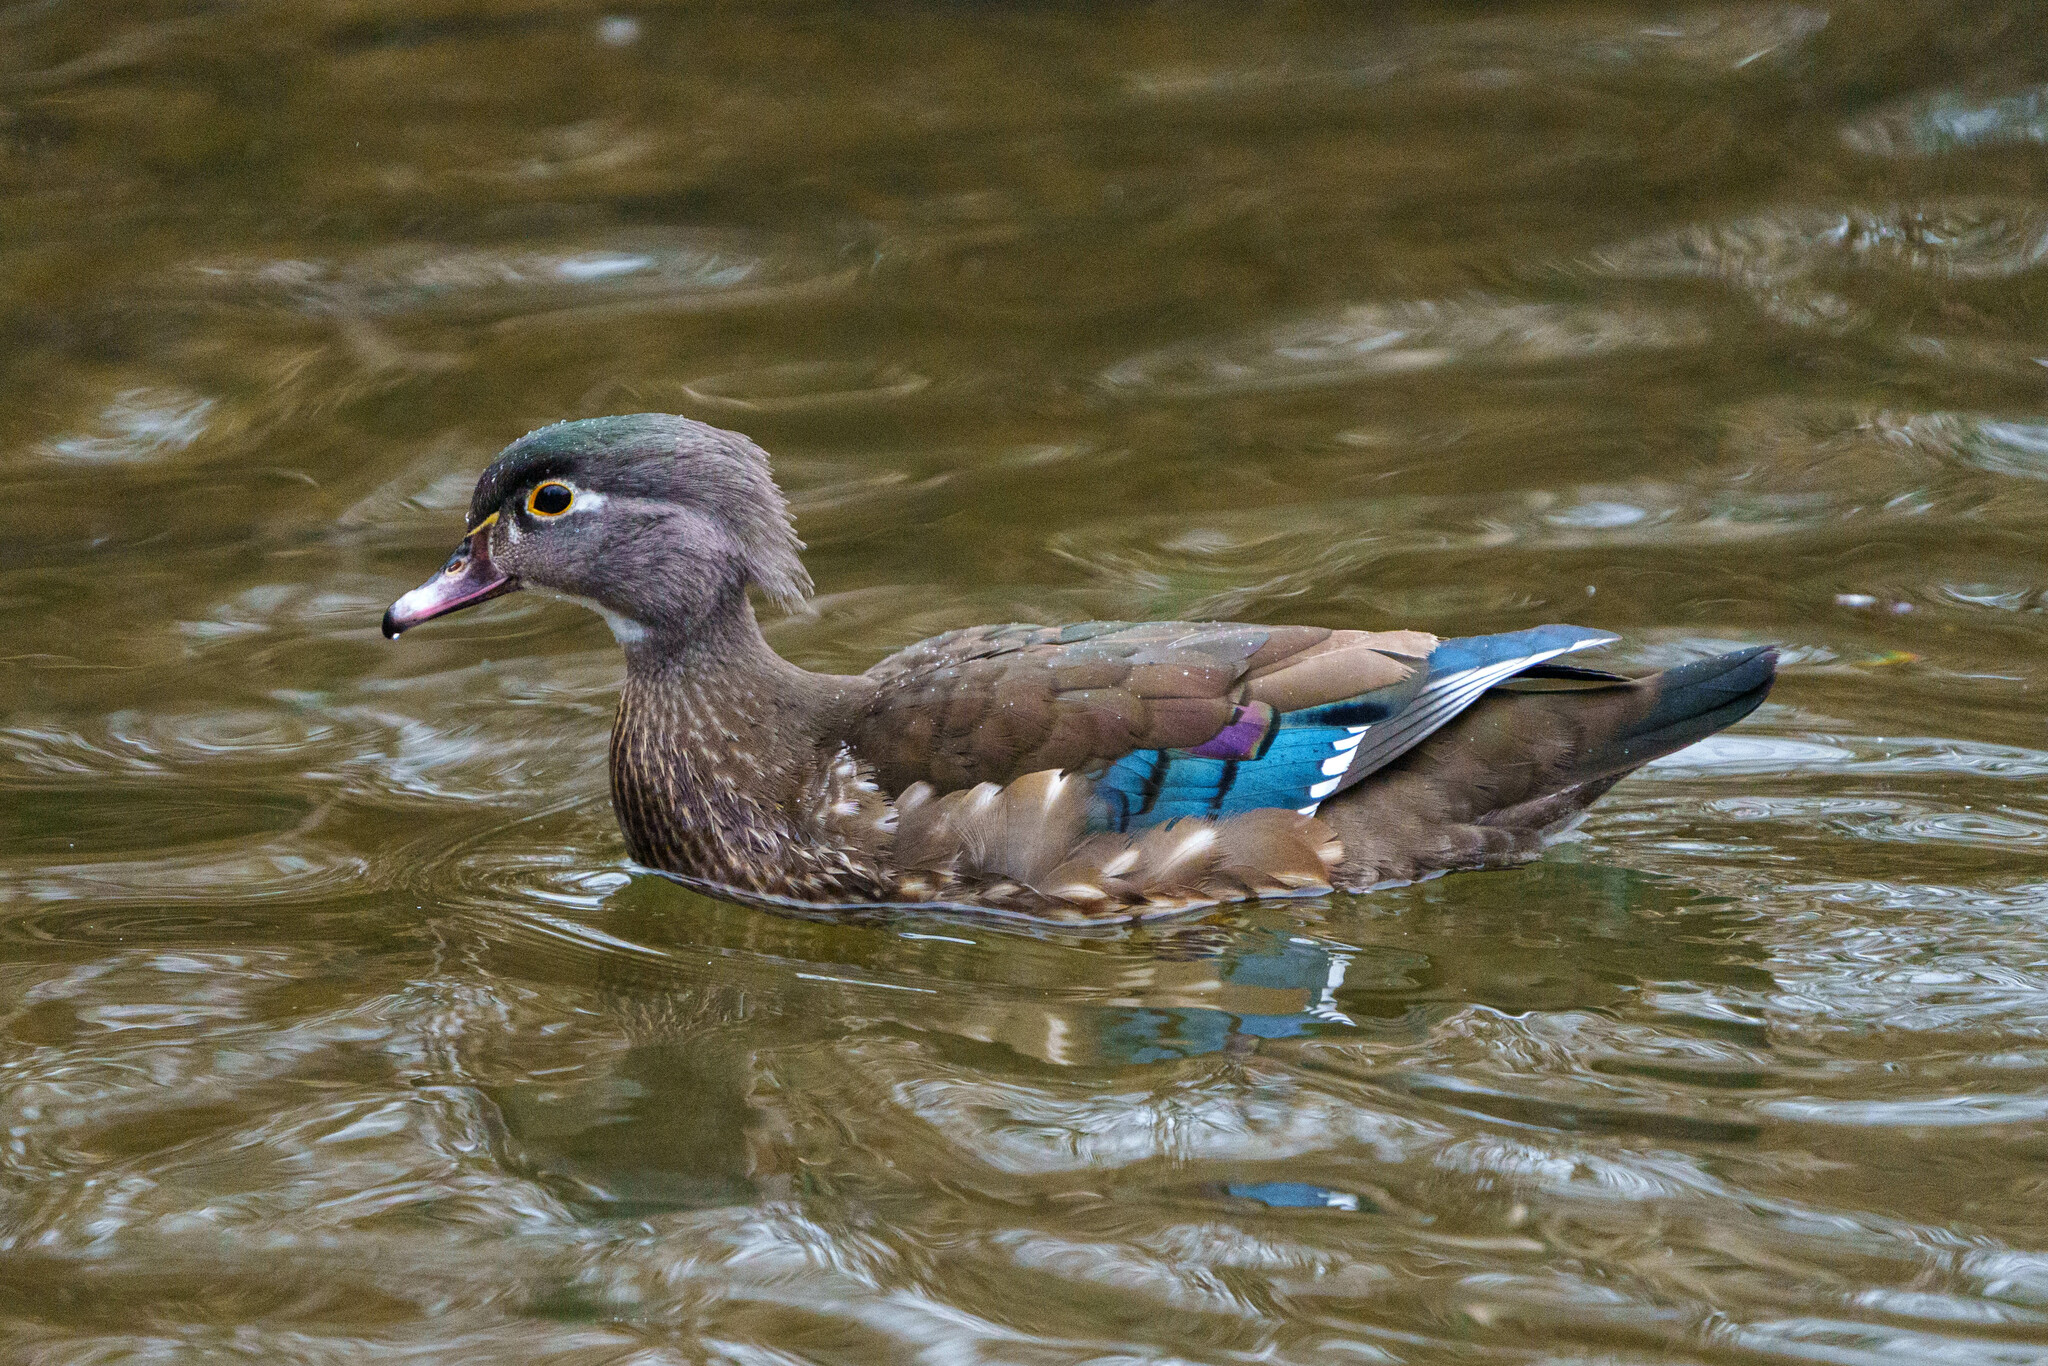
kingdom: Animalia
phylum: Chordata
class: Aves
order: Anseriformes
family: Anatidae
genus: Aix
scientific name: Aix sponsa
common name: Wood duck
